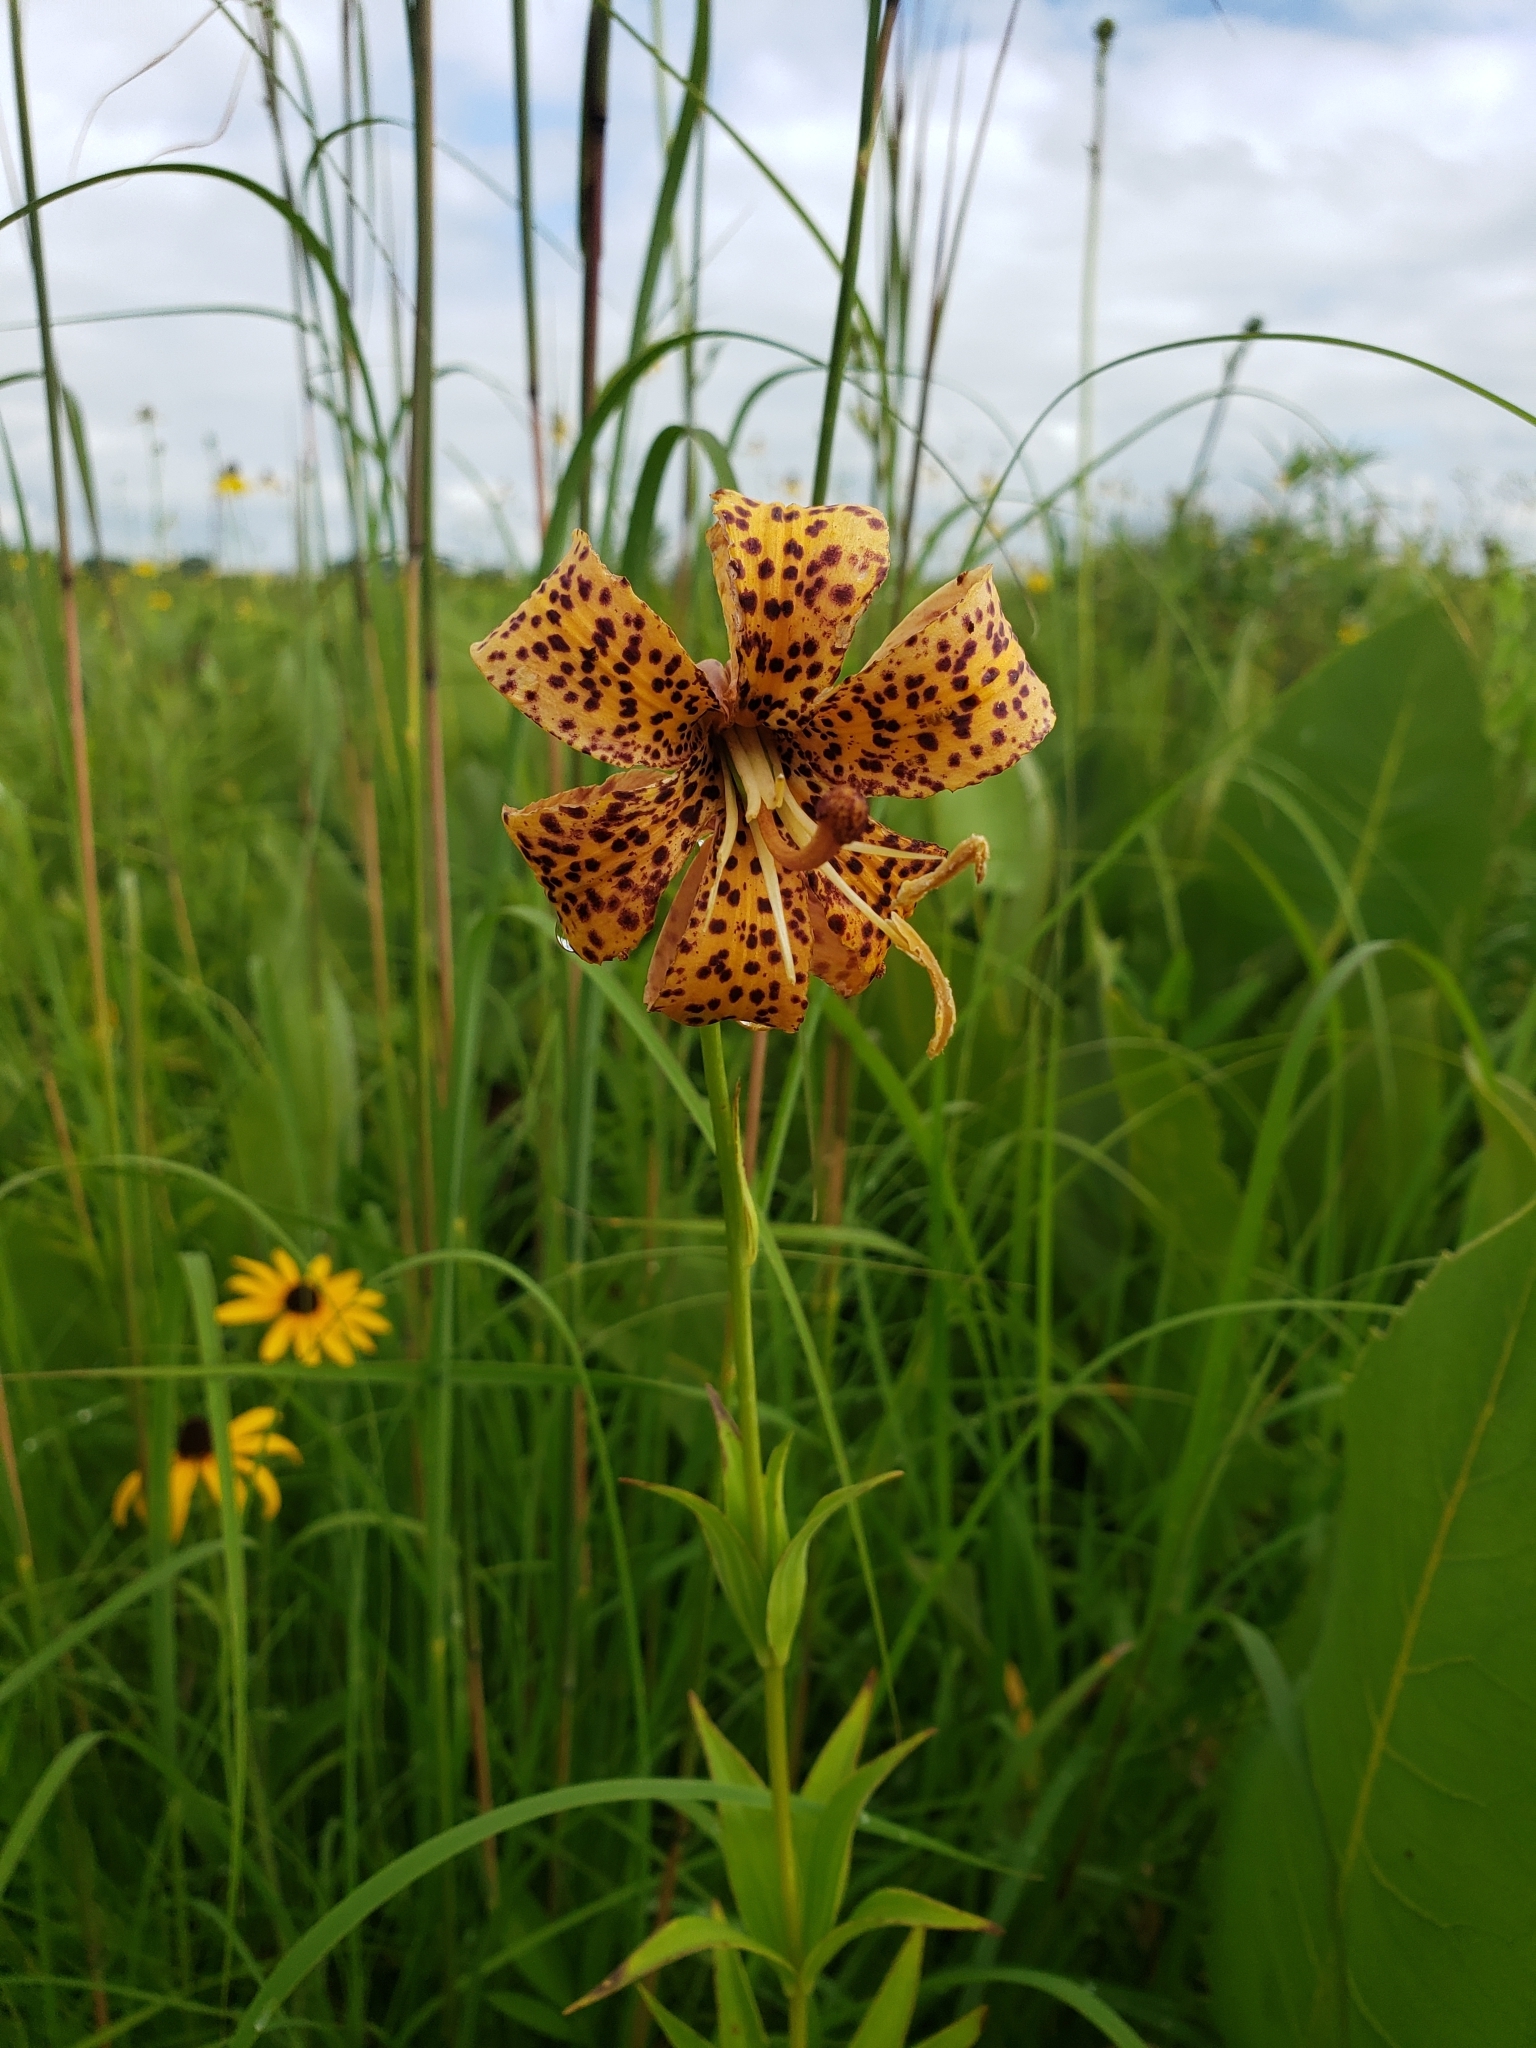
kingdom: Plantae
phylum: Tracheophyta
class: Liliopsida
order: Liliales
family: Liliaceae
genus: Lilium
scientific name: Lilium michiganense
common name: Michigan lily
